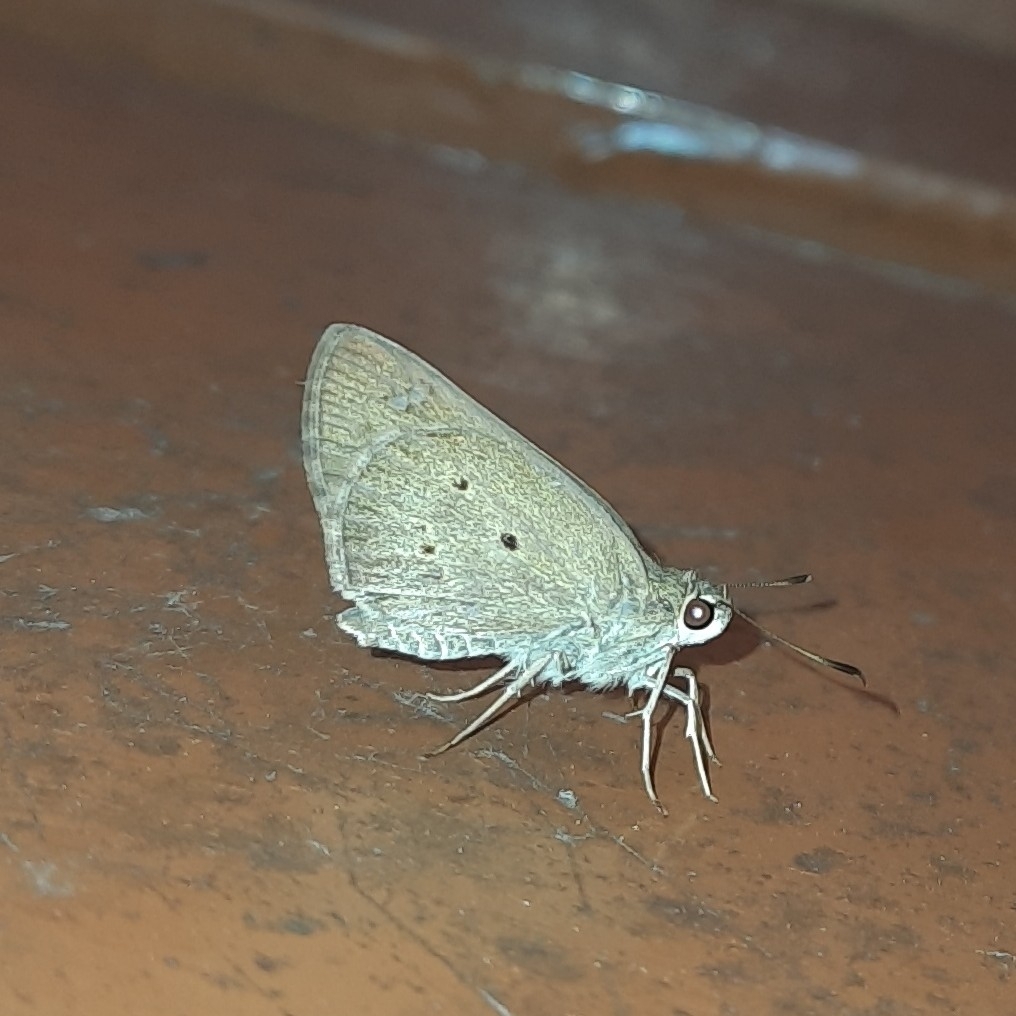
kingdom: Animalia
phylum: Arthropoda
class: Insecta
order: Lepidoptera
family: Hesperiidae
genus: Suastus
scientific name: Suastus gremius
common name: Indian palm bob
